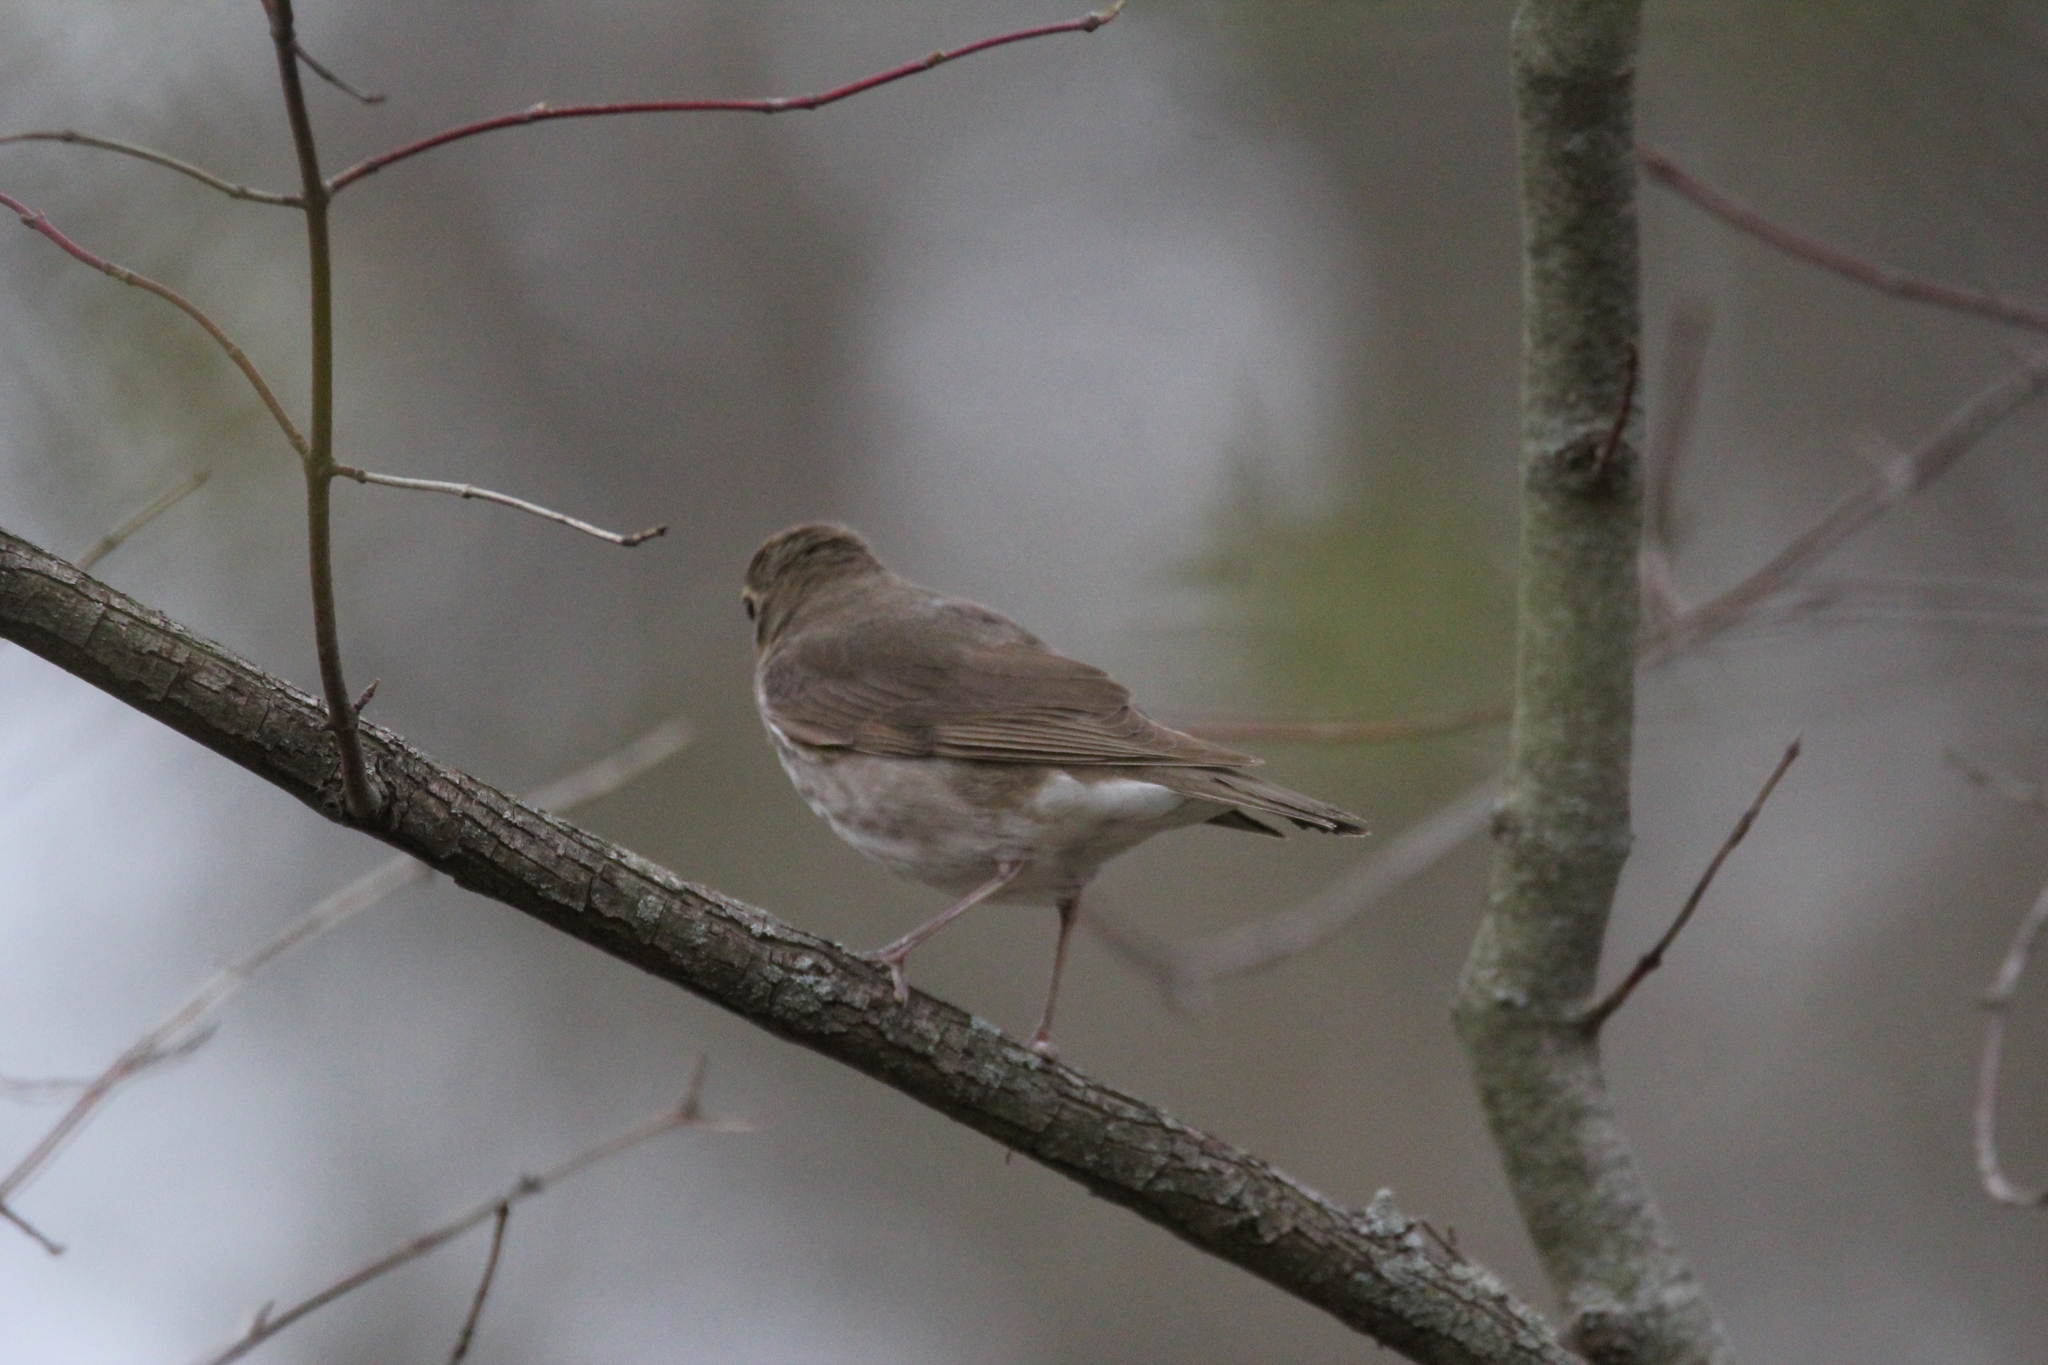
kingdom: Animalia
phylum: Chordata
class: Aves
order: Passeriformes
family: Turdidae
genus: Catharus
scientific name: Catharus ustulatus
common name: Swainson's thrush
